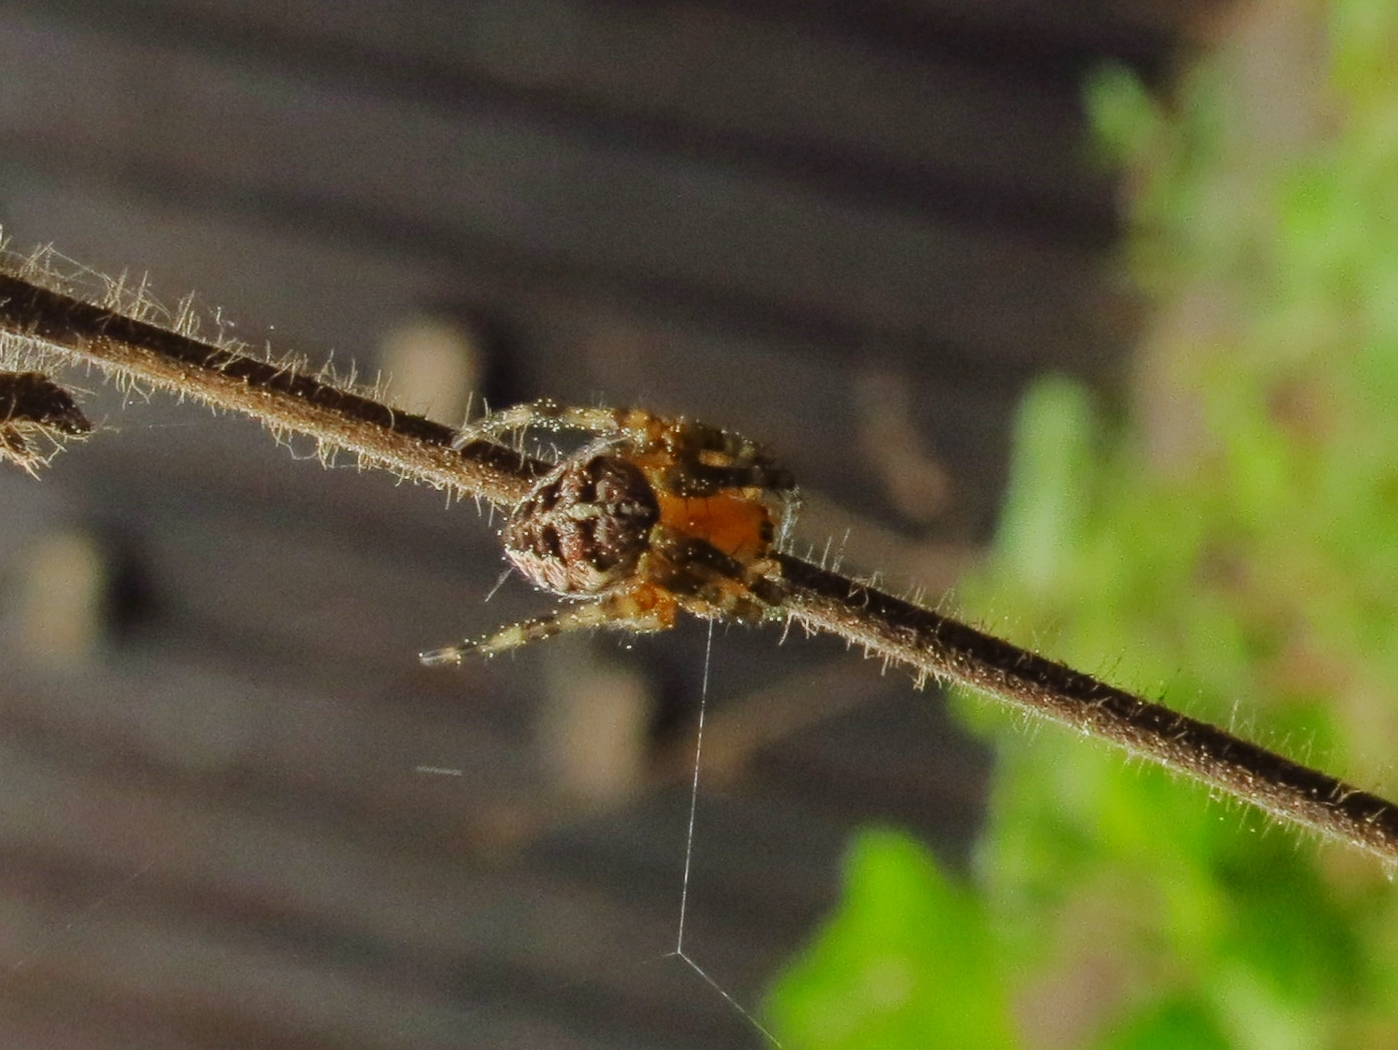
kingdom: Animalia
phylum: Arthropoda
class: Arachnida
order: Araneae
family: Araneidae
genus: Araneus
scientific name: Araneus diadematus
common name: Cross orbweaver
